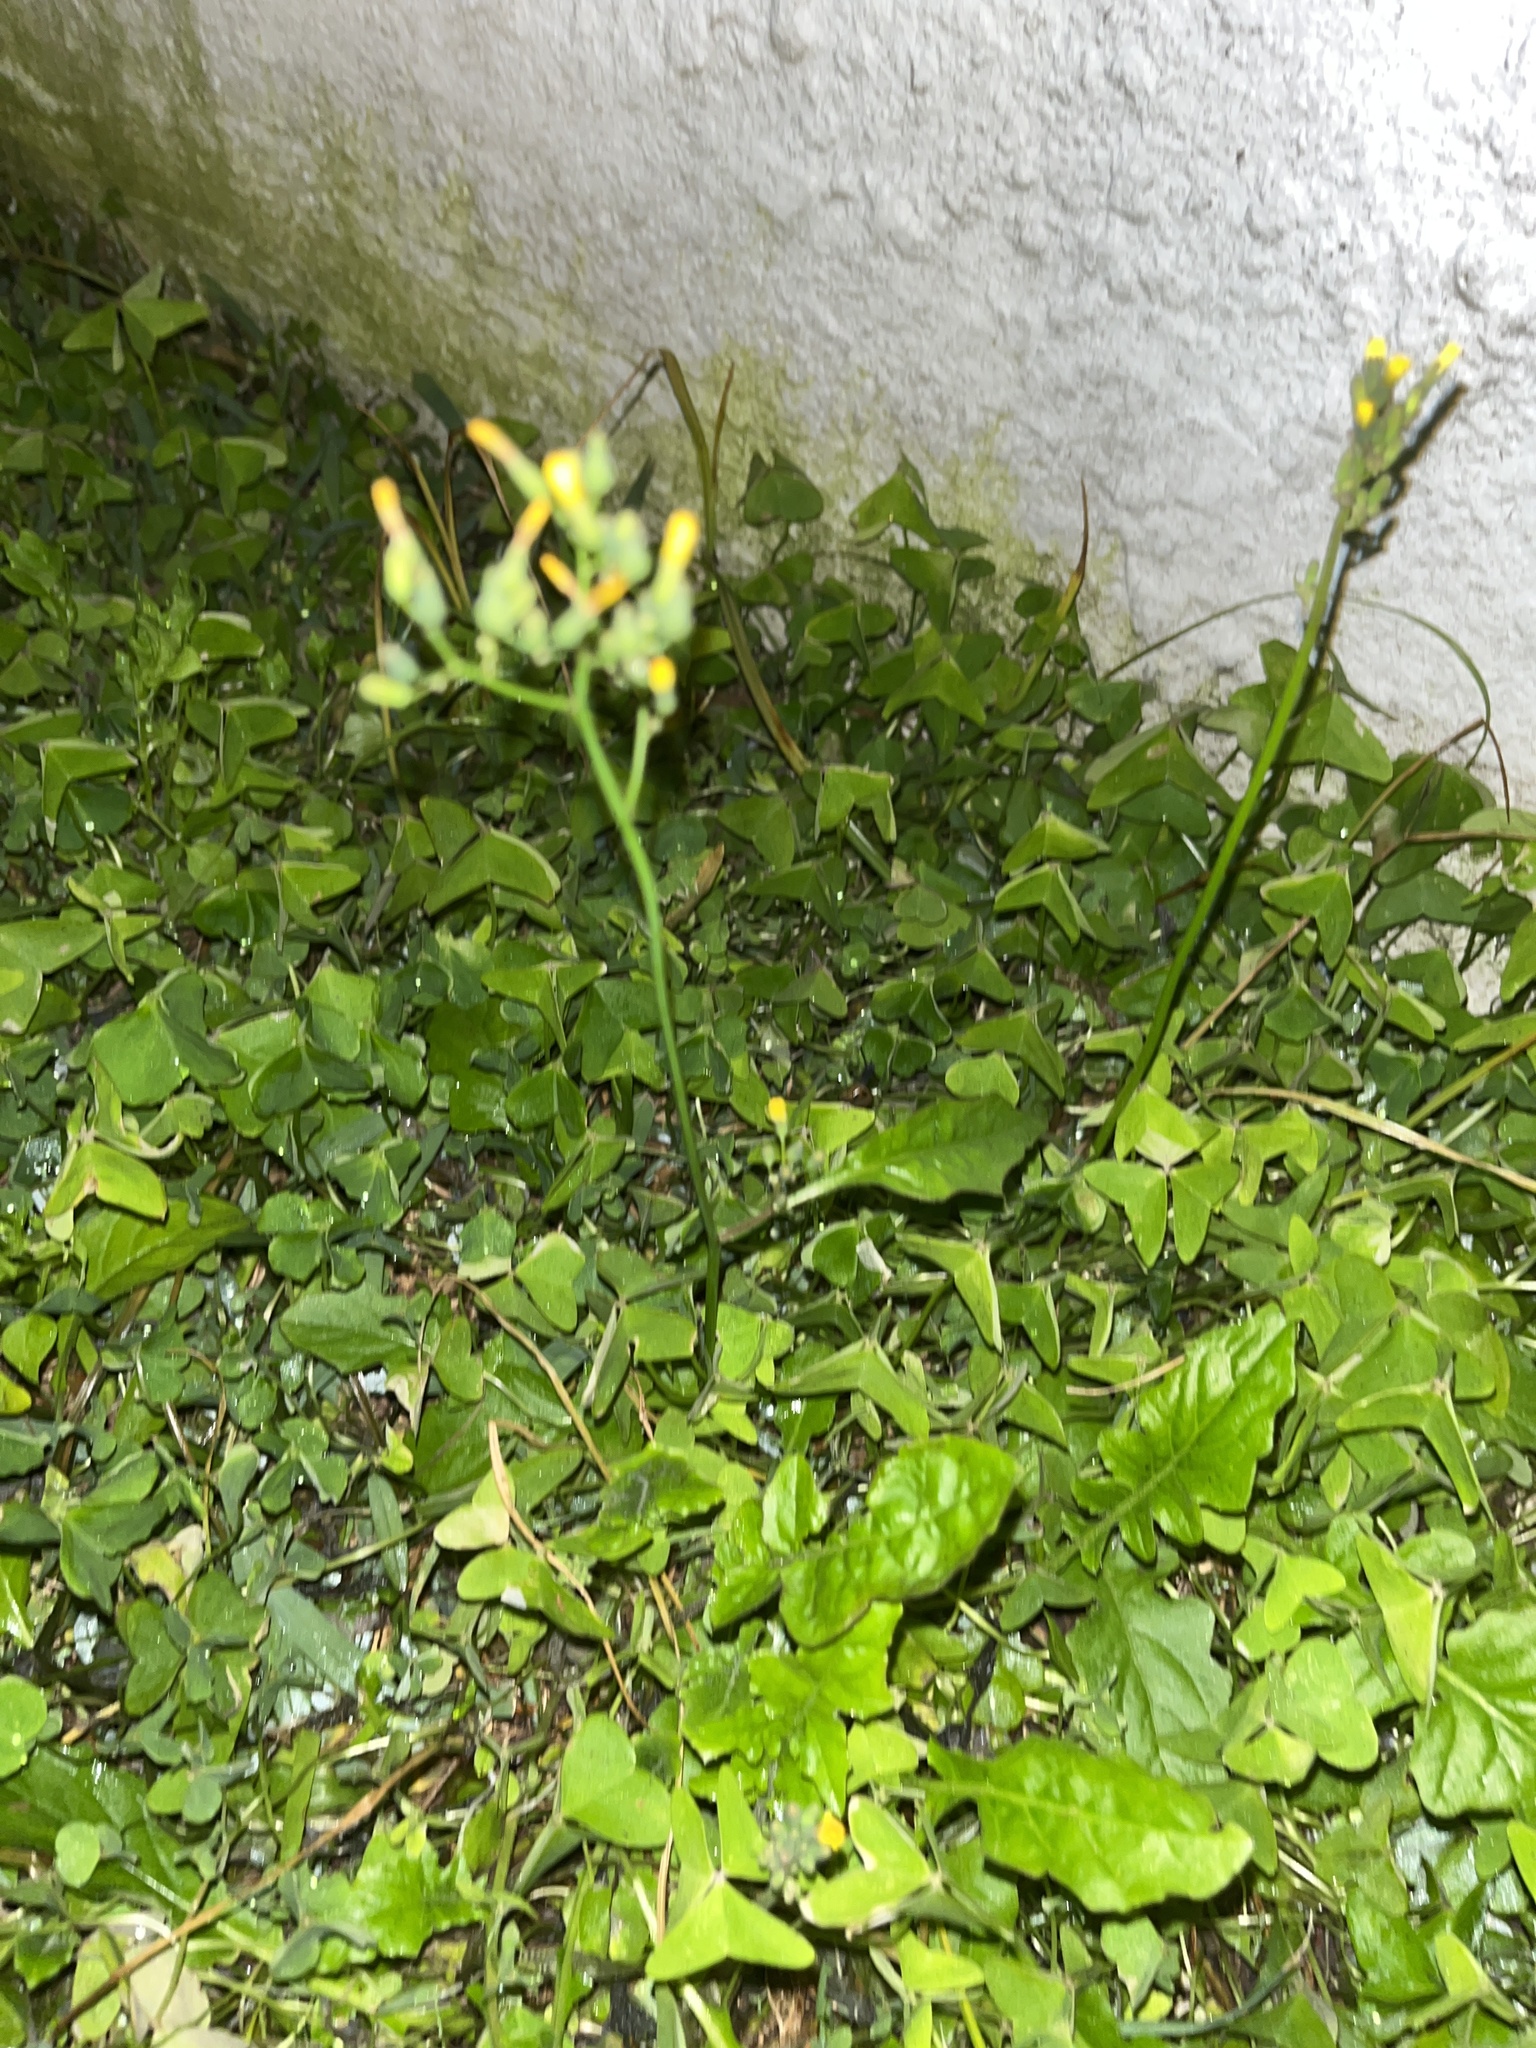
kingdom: Plantae
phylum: Tracheophyta
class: Magnoliopsida
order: Asterales
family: Asteraceae
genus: Youngia
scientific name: Youngia japonica
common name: Oriental false hawksbeard
